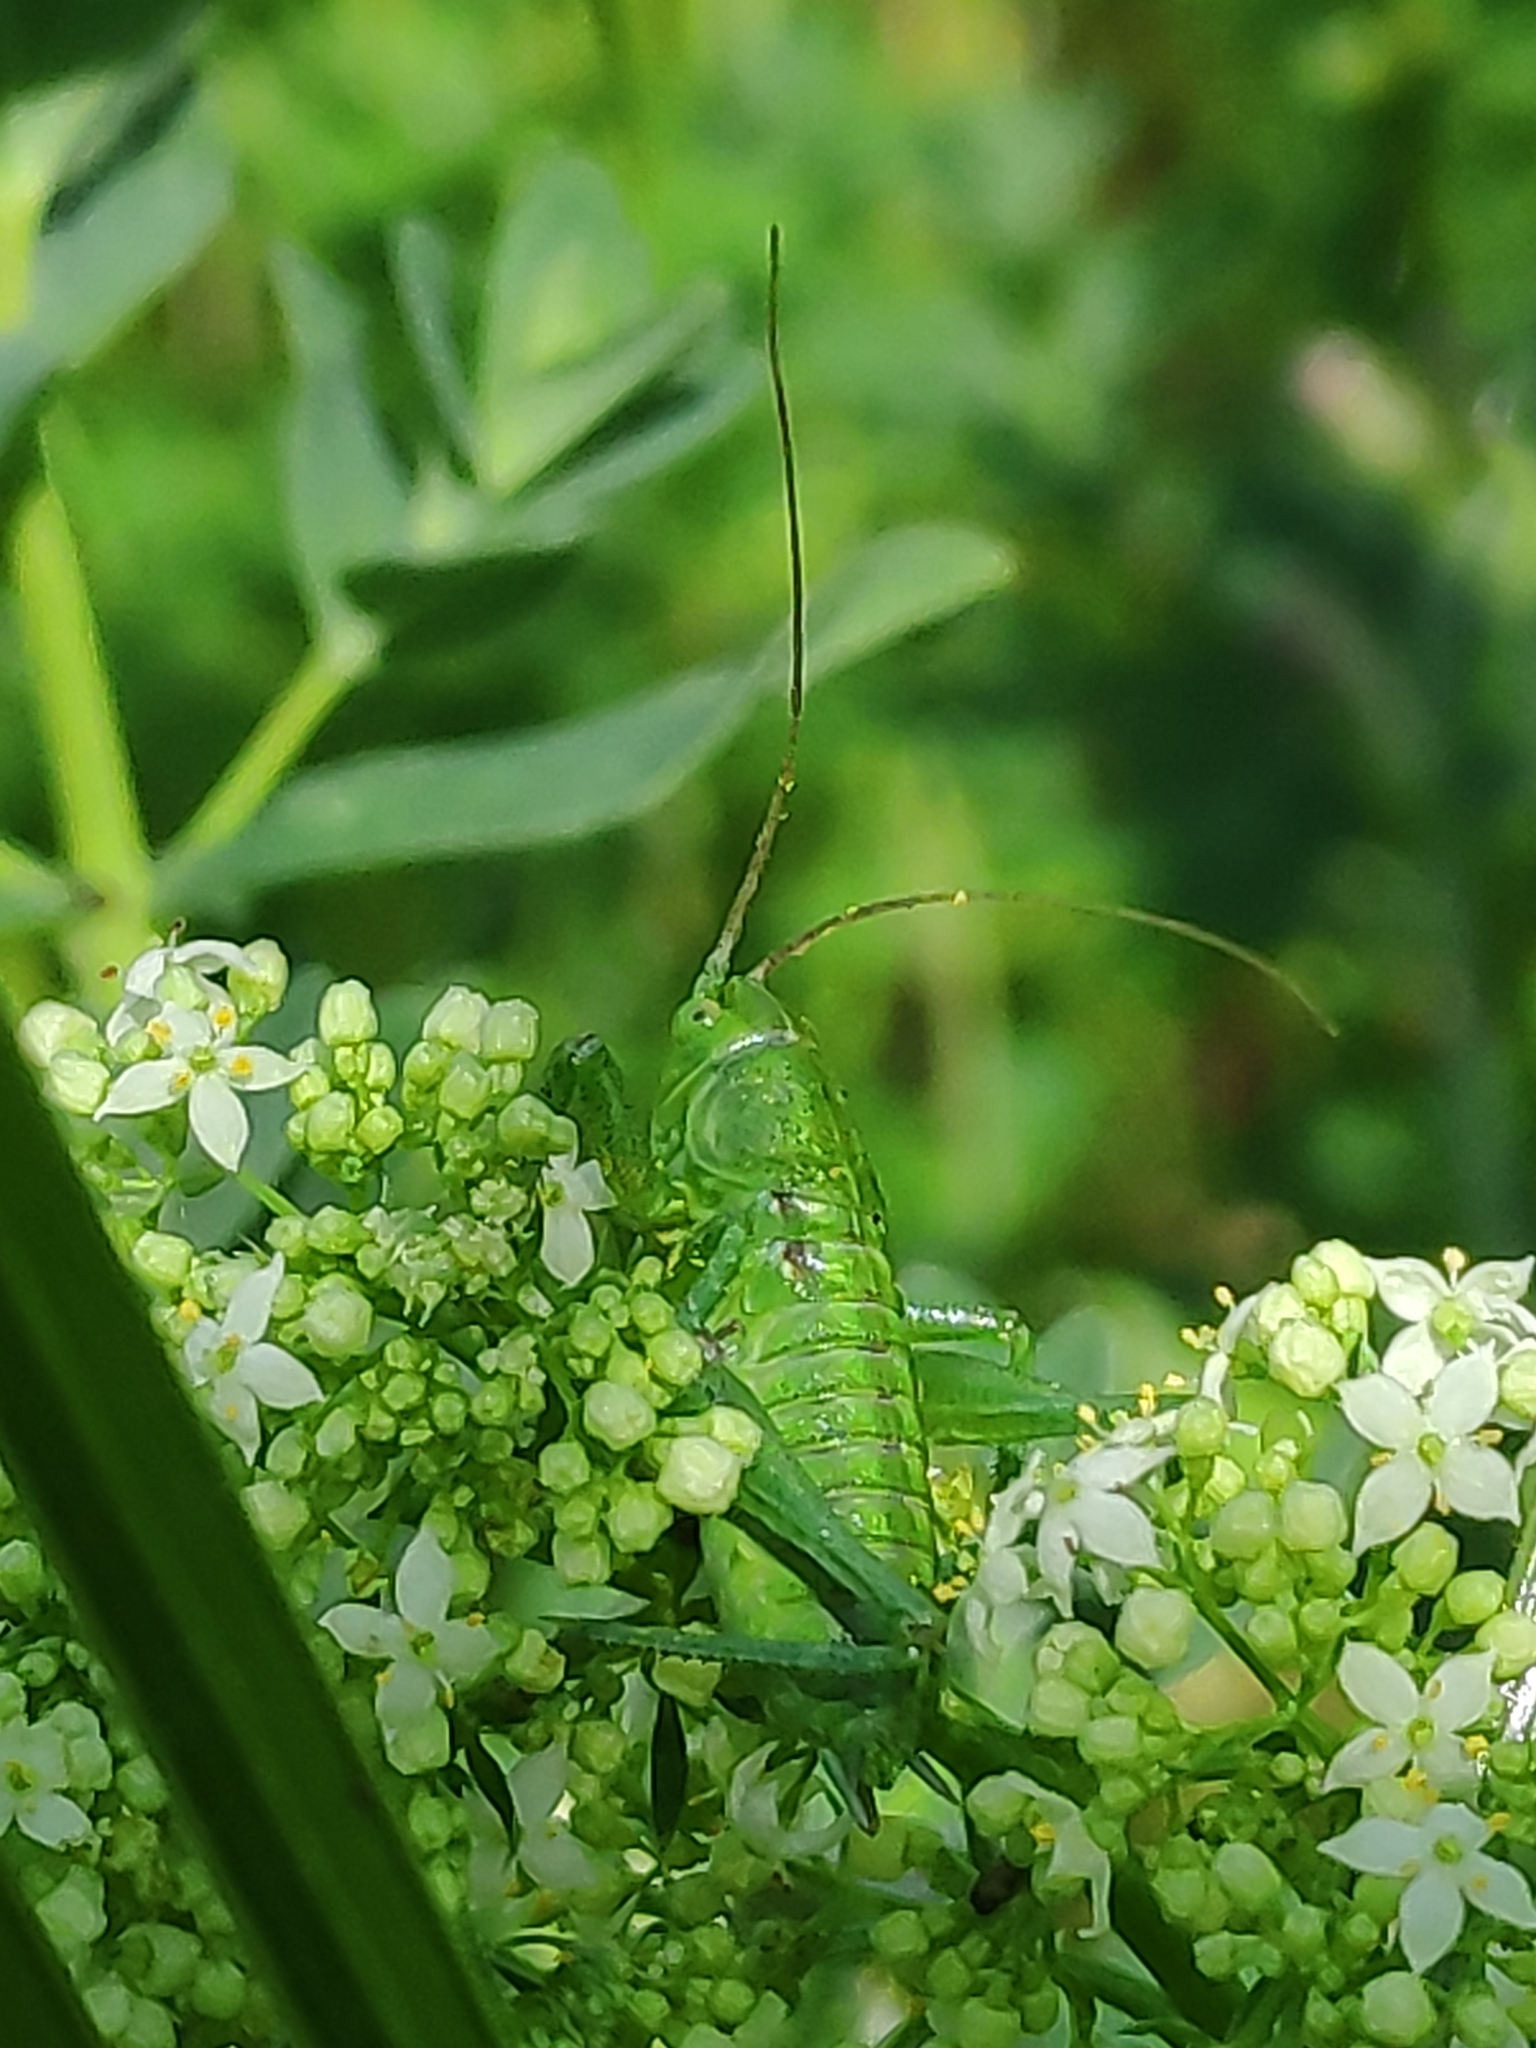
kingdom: Animalia
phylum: Arthropoda
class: Insecta
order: Orthoptera
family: Tettigoniidae
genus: Tettigonia
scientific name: Tettigonia viridissima
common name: Great green bush-cricket
